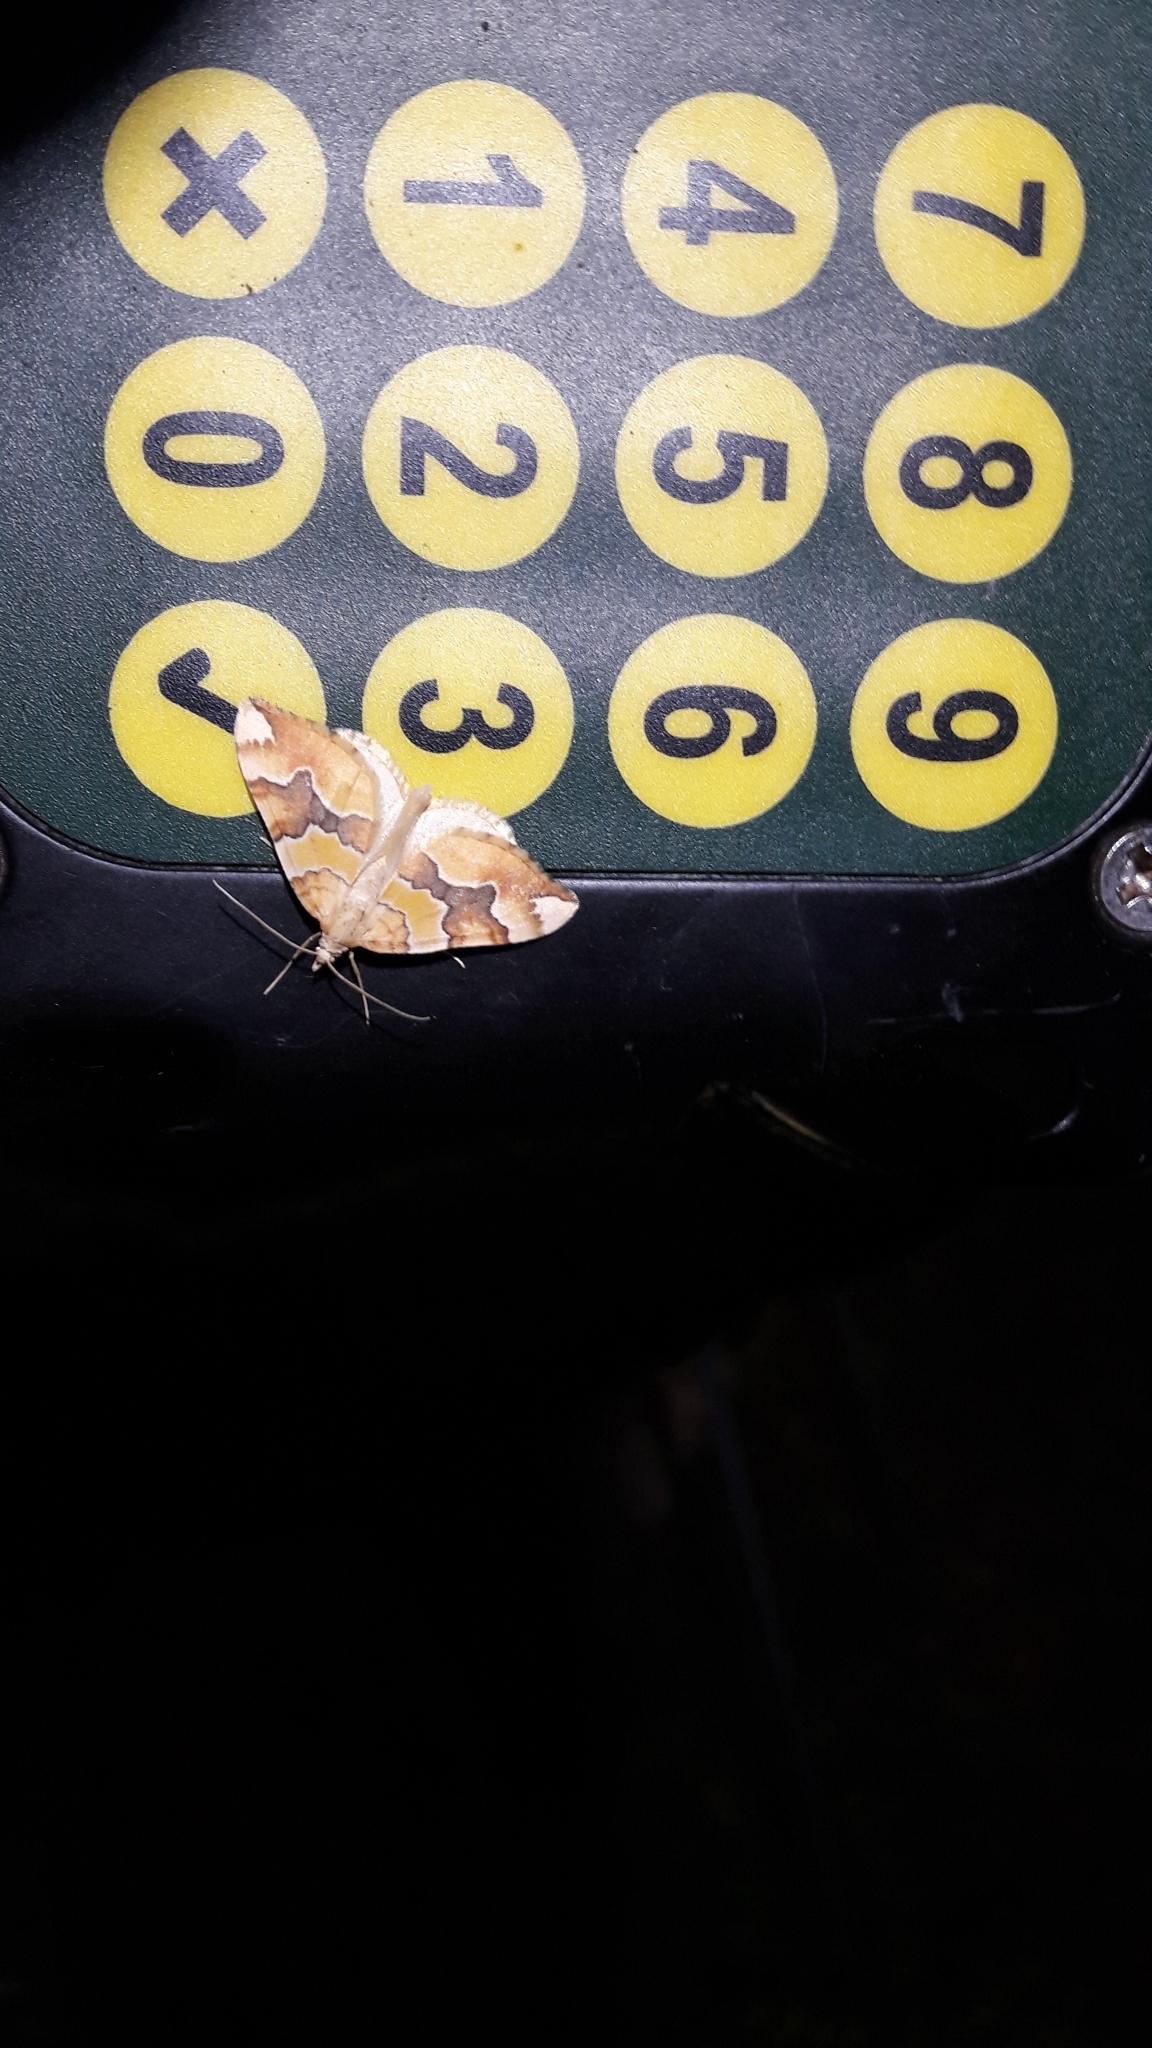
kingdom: Animalia
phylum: Arthropoda
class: Insecta
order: Lepidoptera
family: Geometridae
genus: Cidaria
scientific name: Cidaria fulvata
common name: Barred yellow
